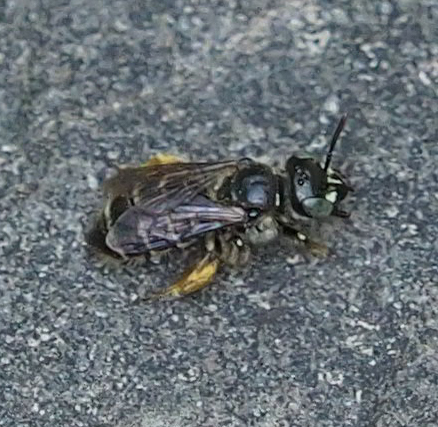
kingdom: Animalia
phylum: Arthropoda
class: Insecta
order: Hymenoptera
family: Andrenidae
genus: Calliopsis
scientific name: Calliopsis andreniformis
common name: Eastern calliopsis bee
